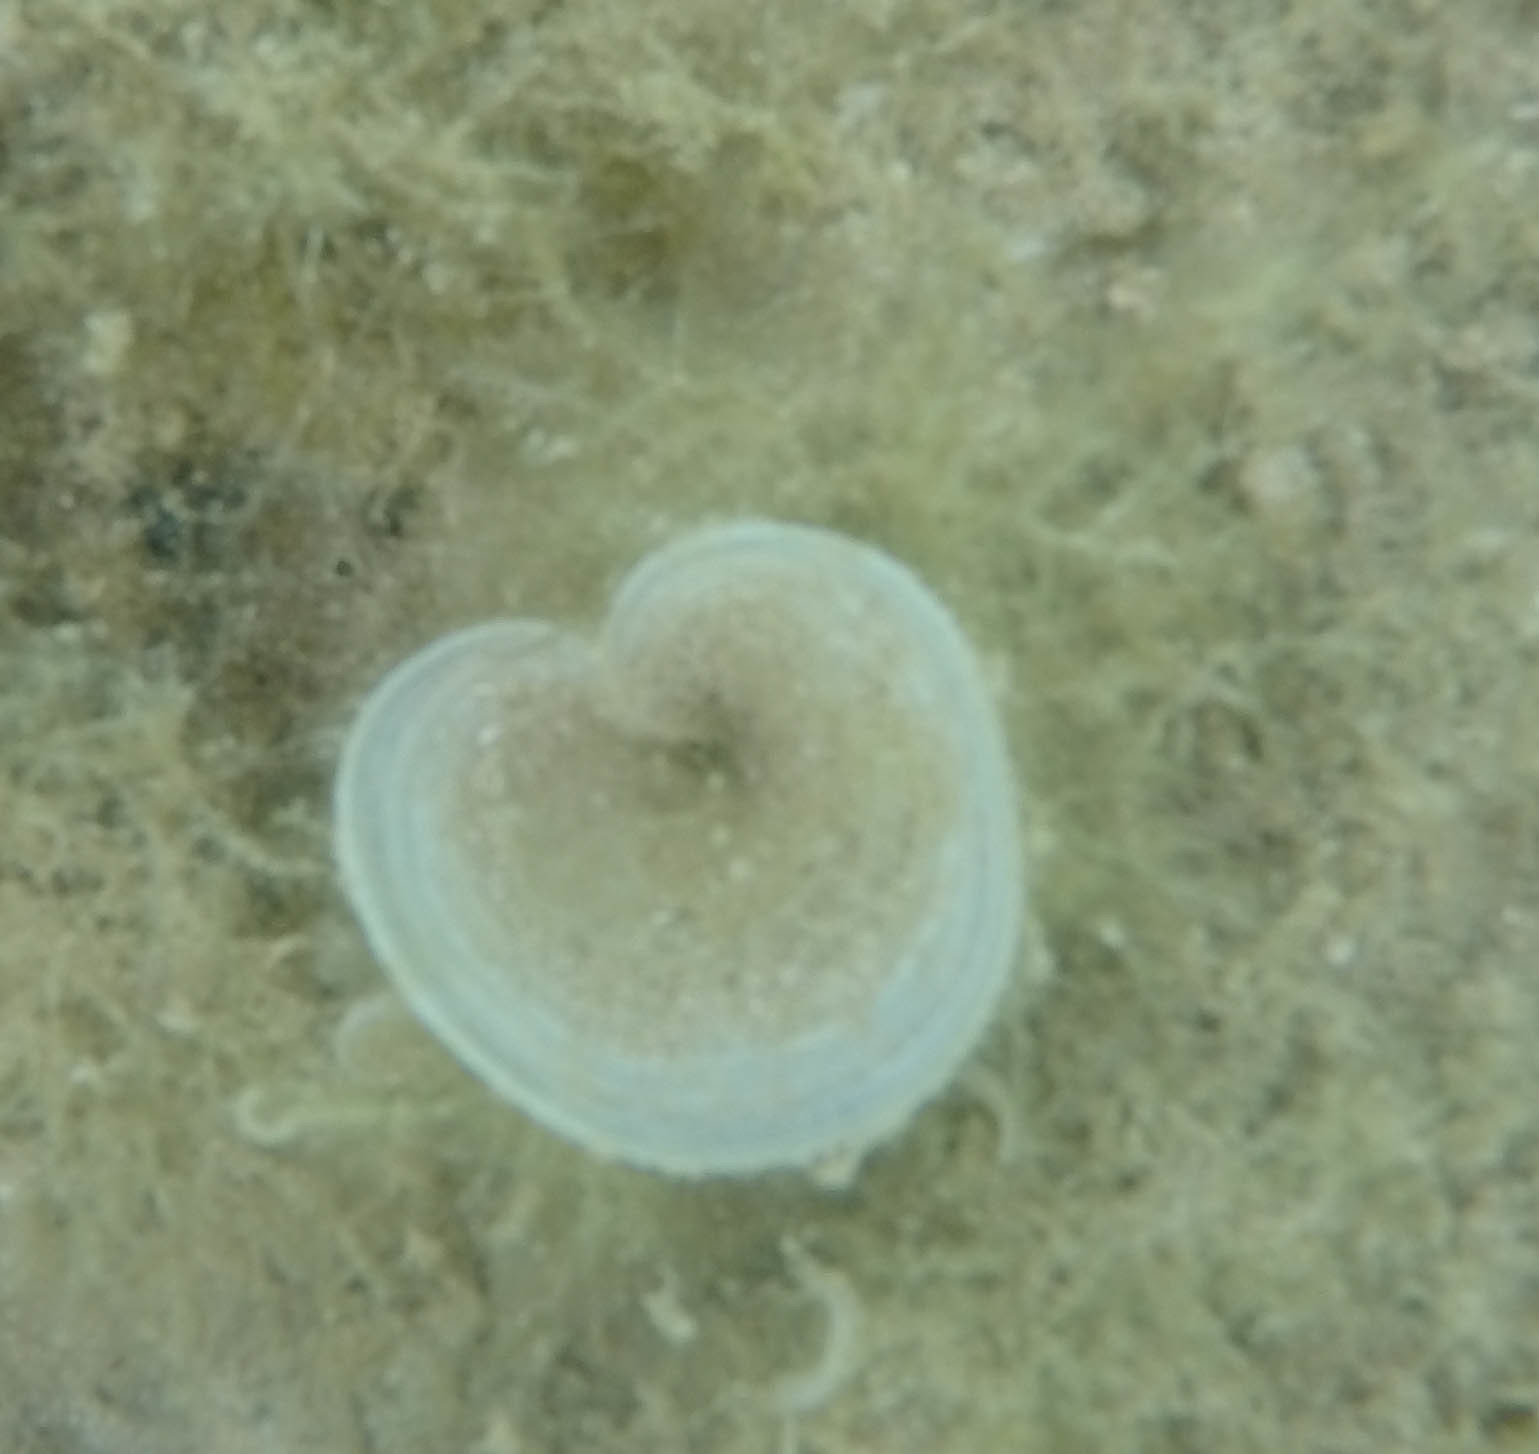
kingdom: Chromista
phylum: Ochrophyta
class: Phaeophyceae
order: Dictyotales
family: Dictyotaceae
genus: Padina
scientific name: Padina sanctae-crucis
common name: White scroll algae
